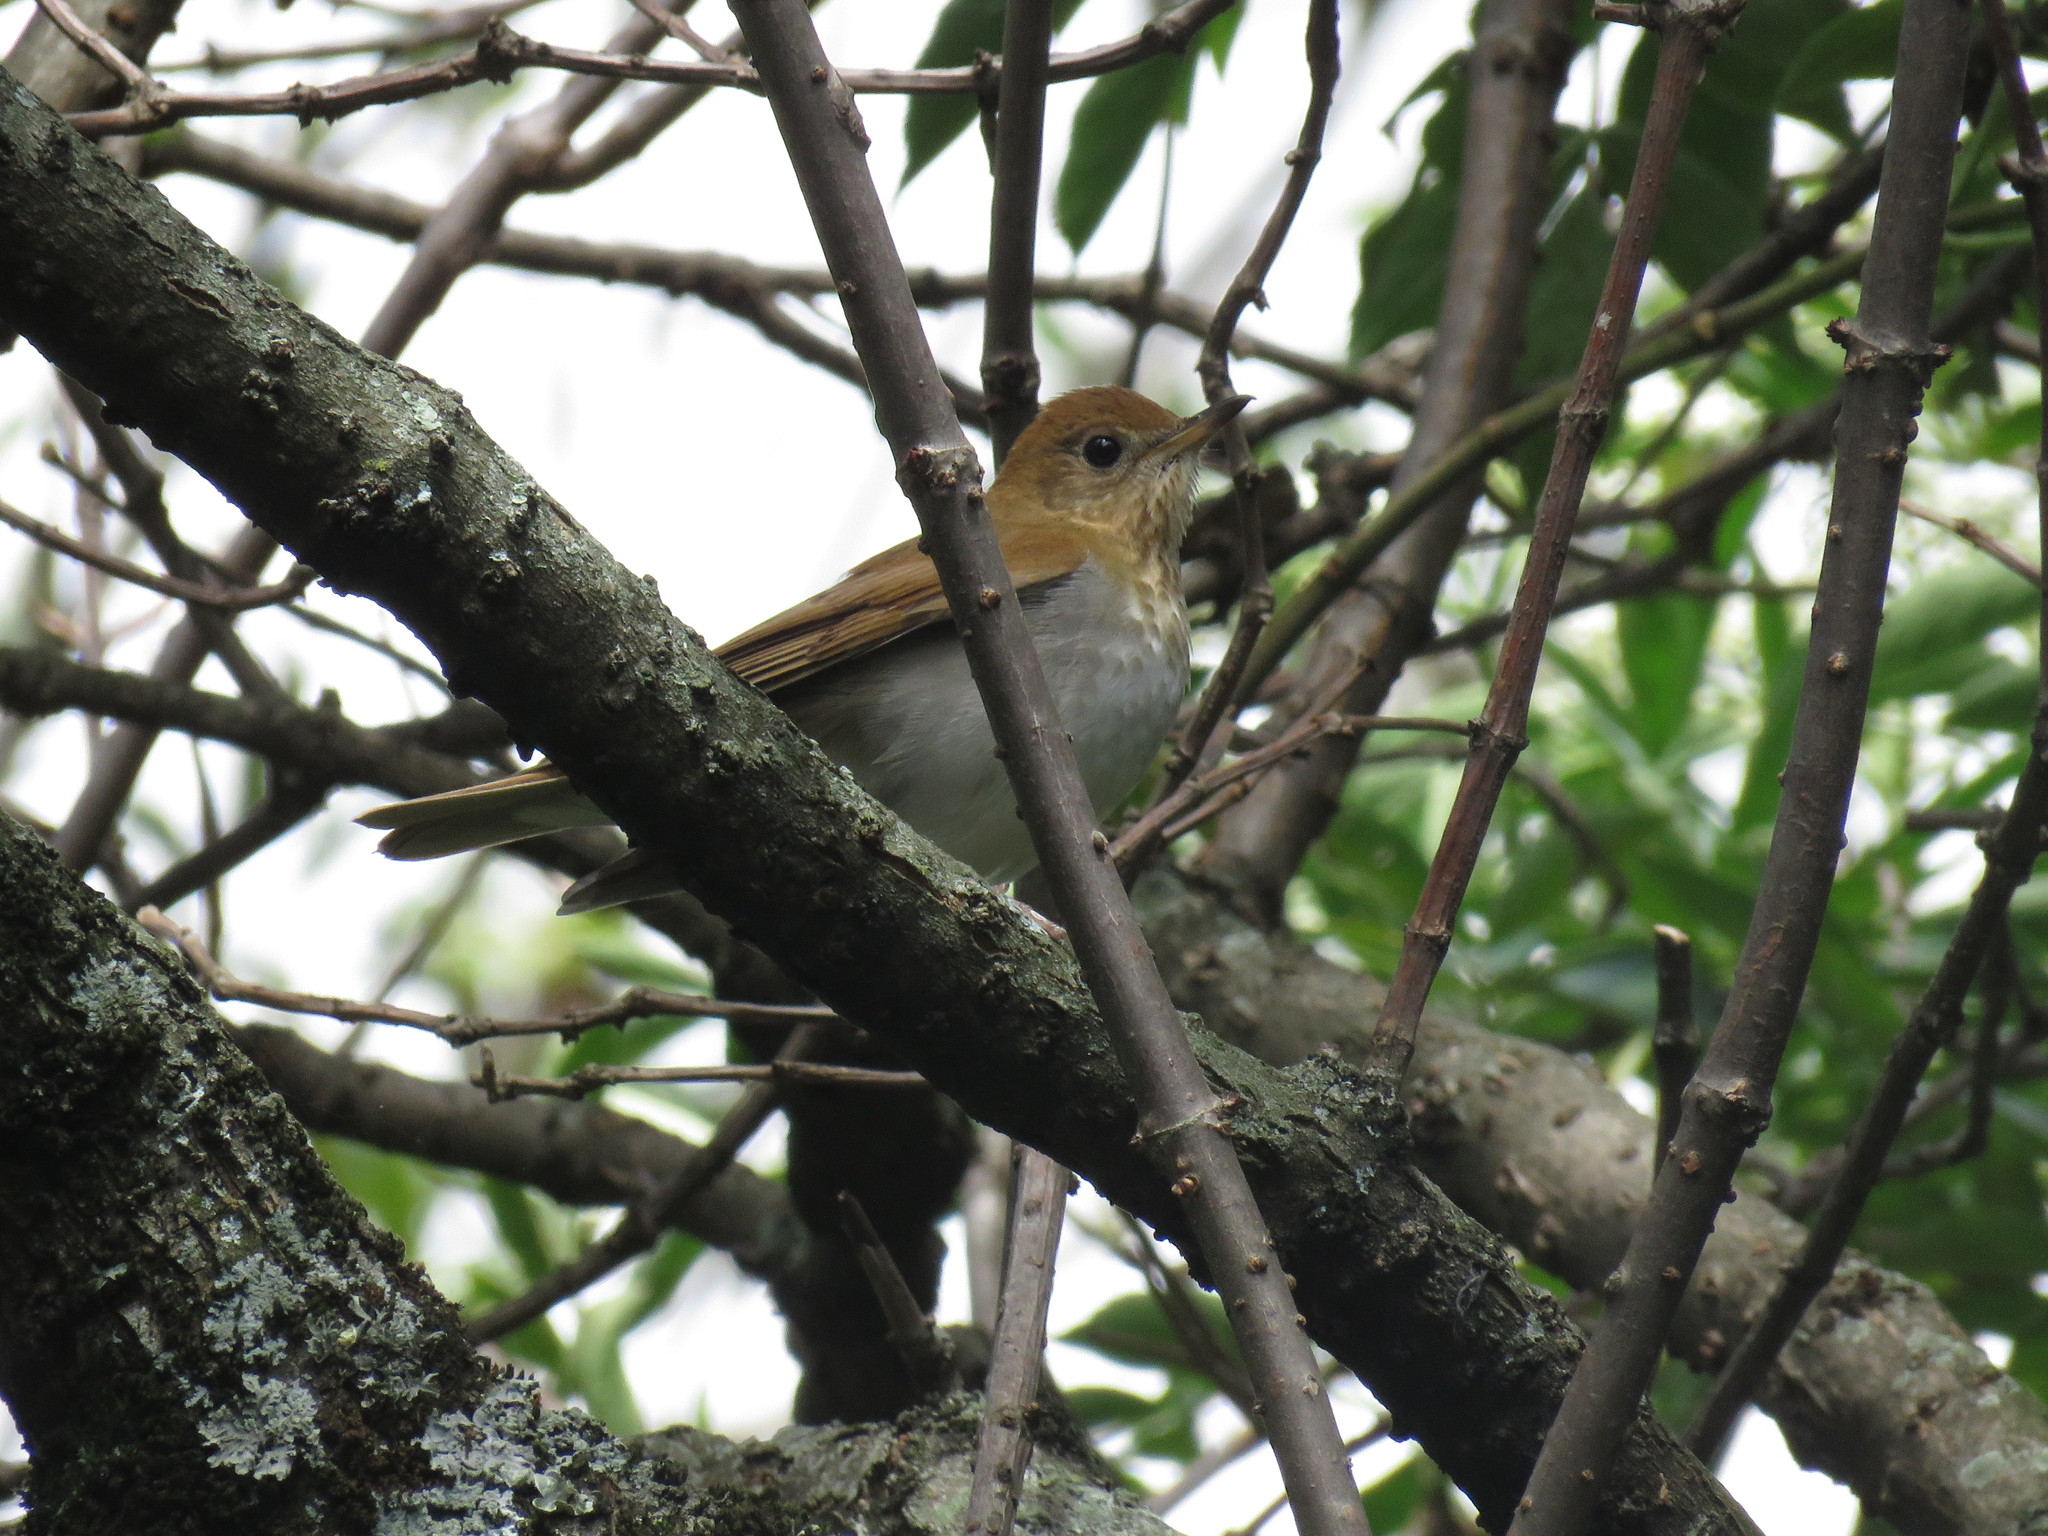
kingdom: Animalia
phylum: Chordata
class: Aves
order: Passeriformes
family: Turdidae
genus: Catharus
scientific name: Catharus fuscescens
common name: Veery
